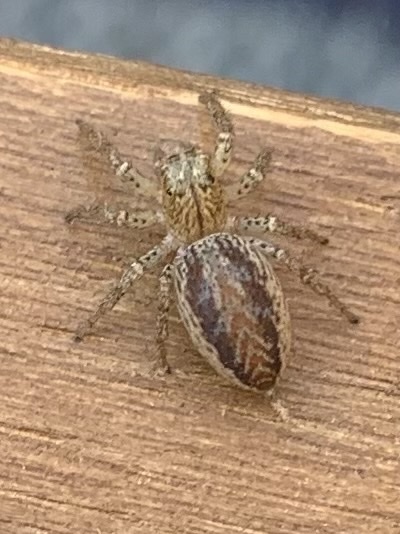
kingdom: Animalia
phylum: Arthropoda
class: Arachnida
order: Araneae
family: Salticidae
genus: Maevia
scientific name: Maevia inclemens
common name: Dimorphic jumper
